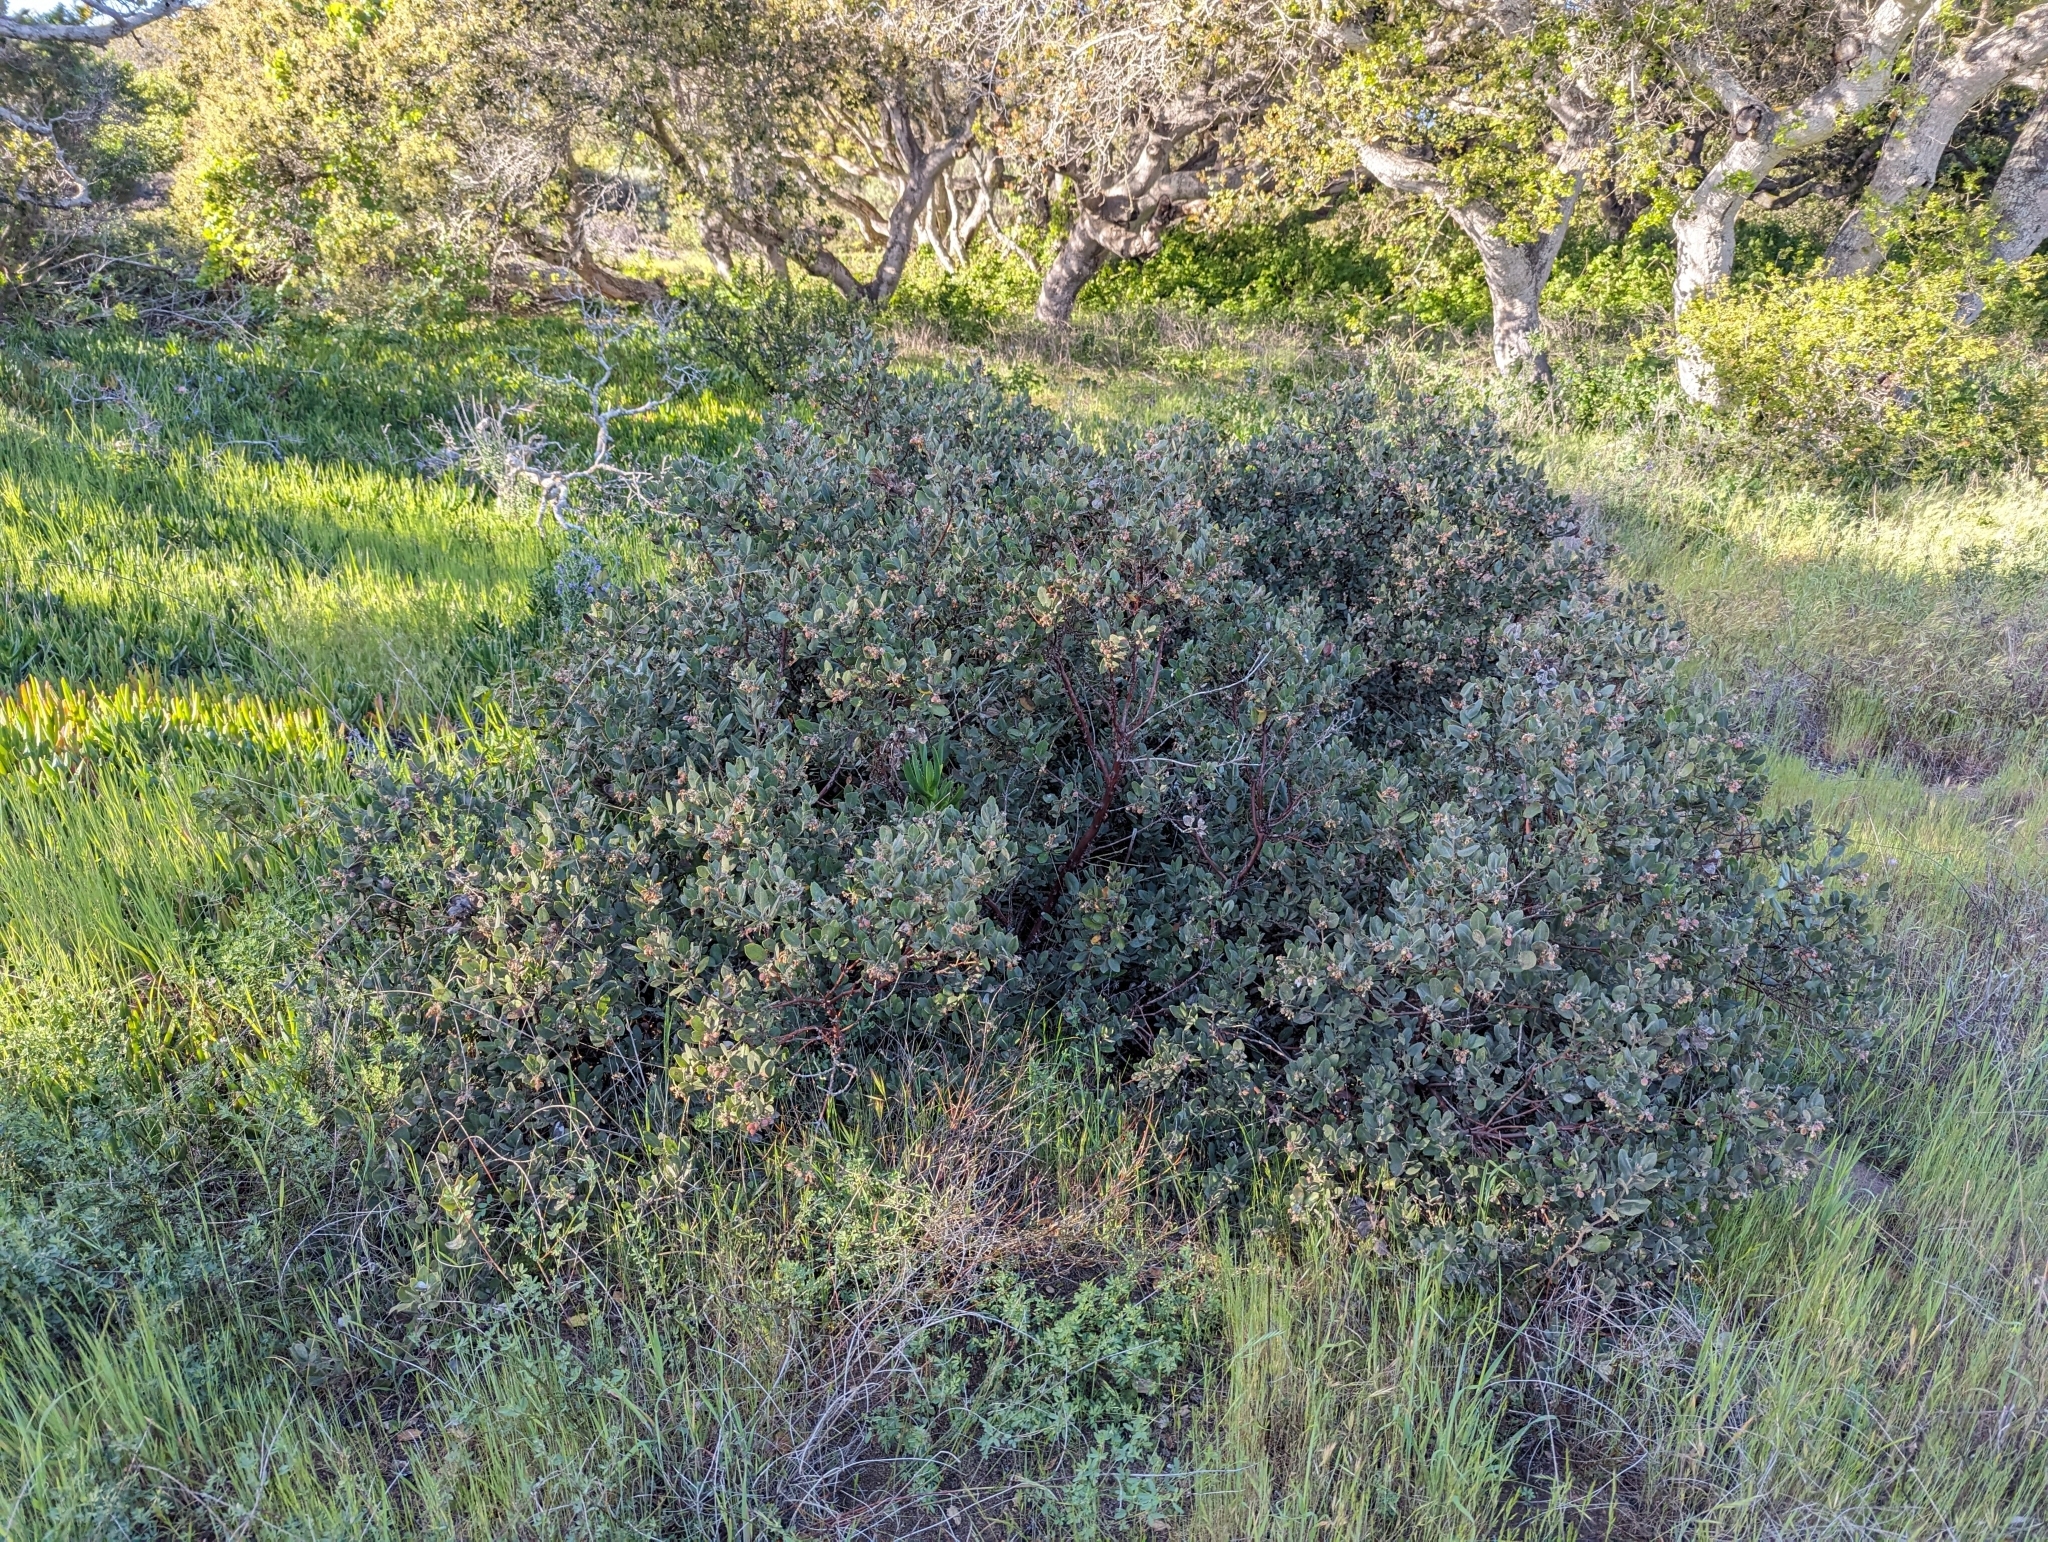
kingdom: Plantae
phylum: Tracheophyta
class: Magnoliopsida
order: Ericales
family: Ericaceae
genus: Arctostaphylos
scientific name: Arctostaphylos tomentosa
